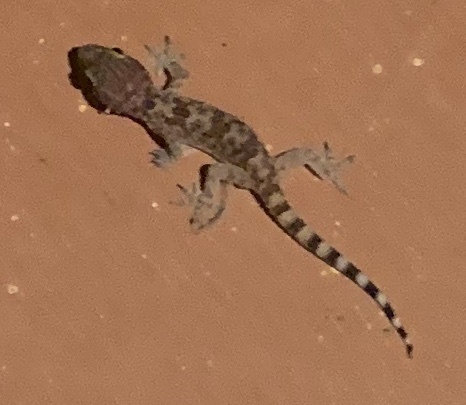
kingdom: Animalia
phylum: Chordata
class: Squamata
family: Gekkonidae
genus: Hemidactylus
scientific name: Hemidactylus turcicus
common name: Turkish gecko
